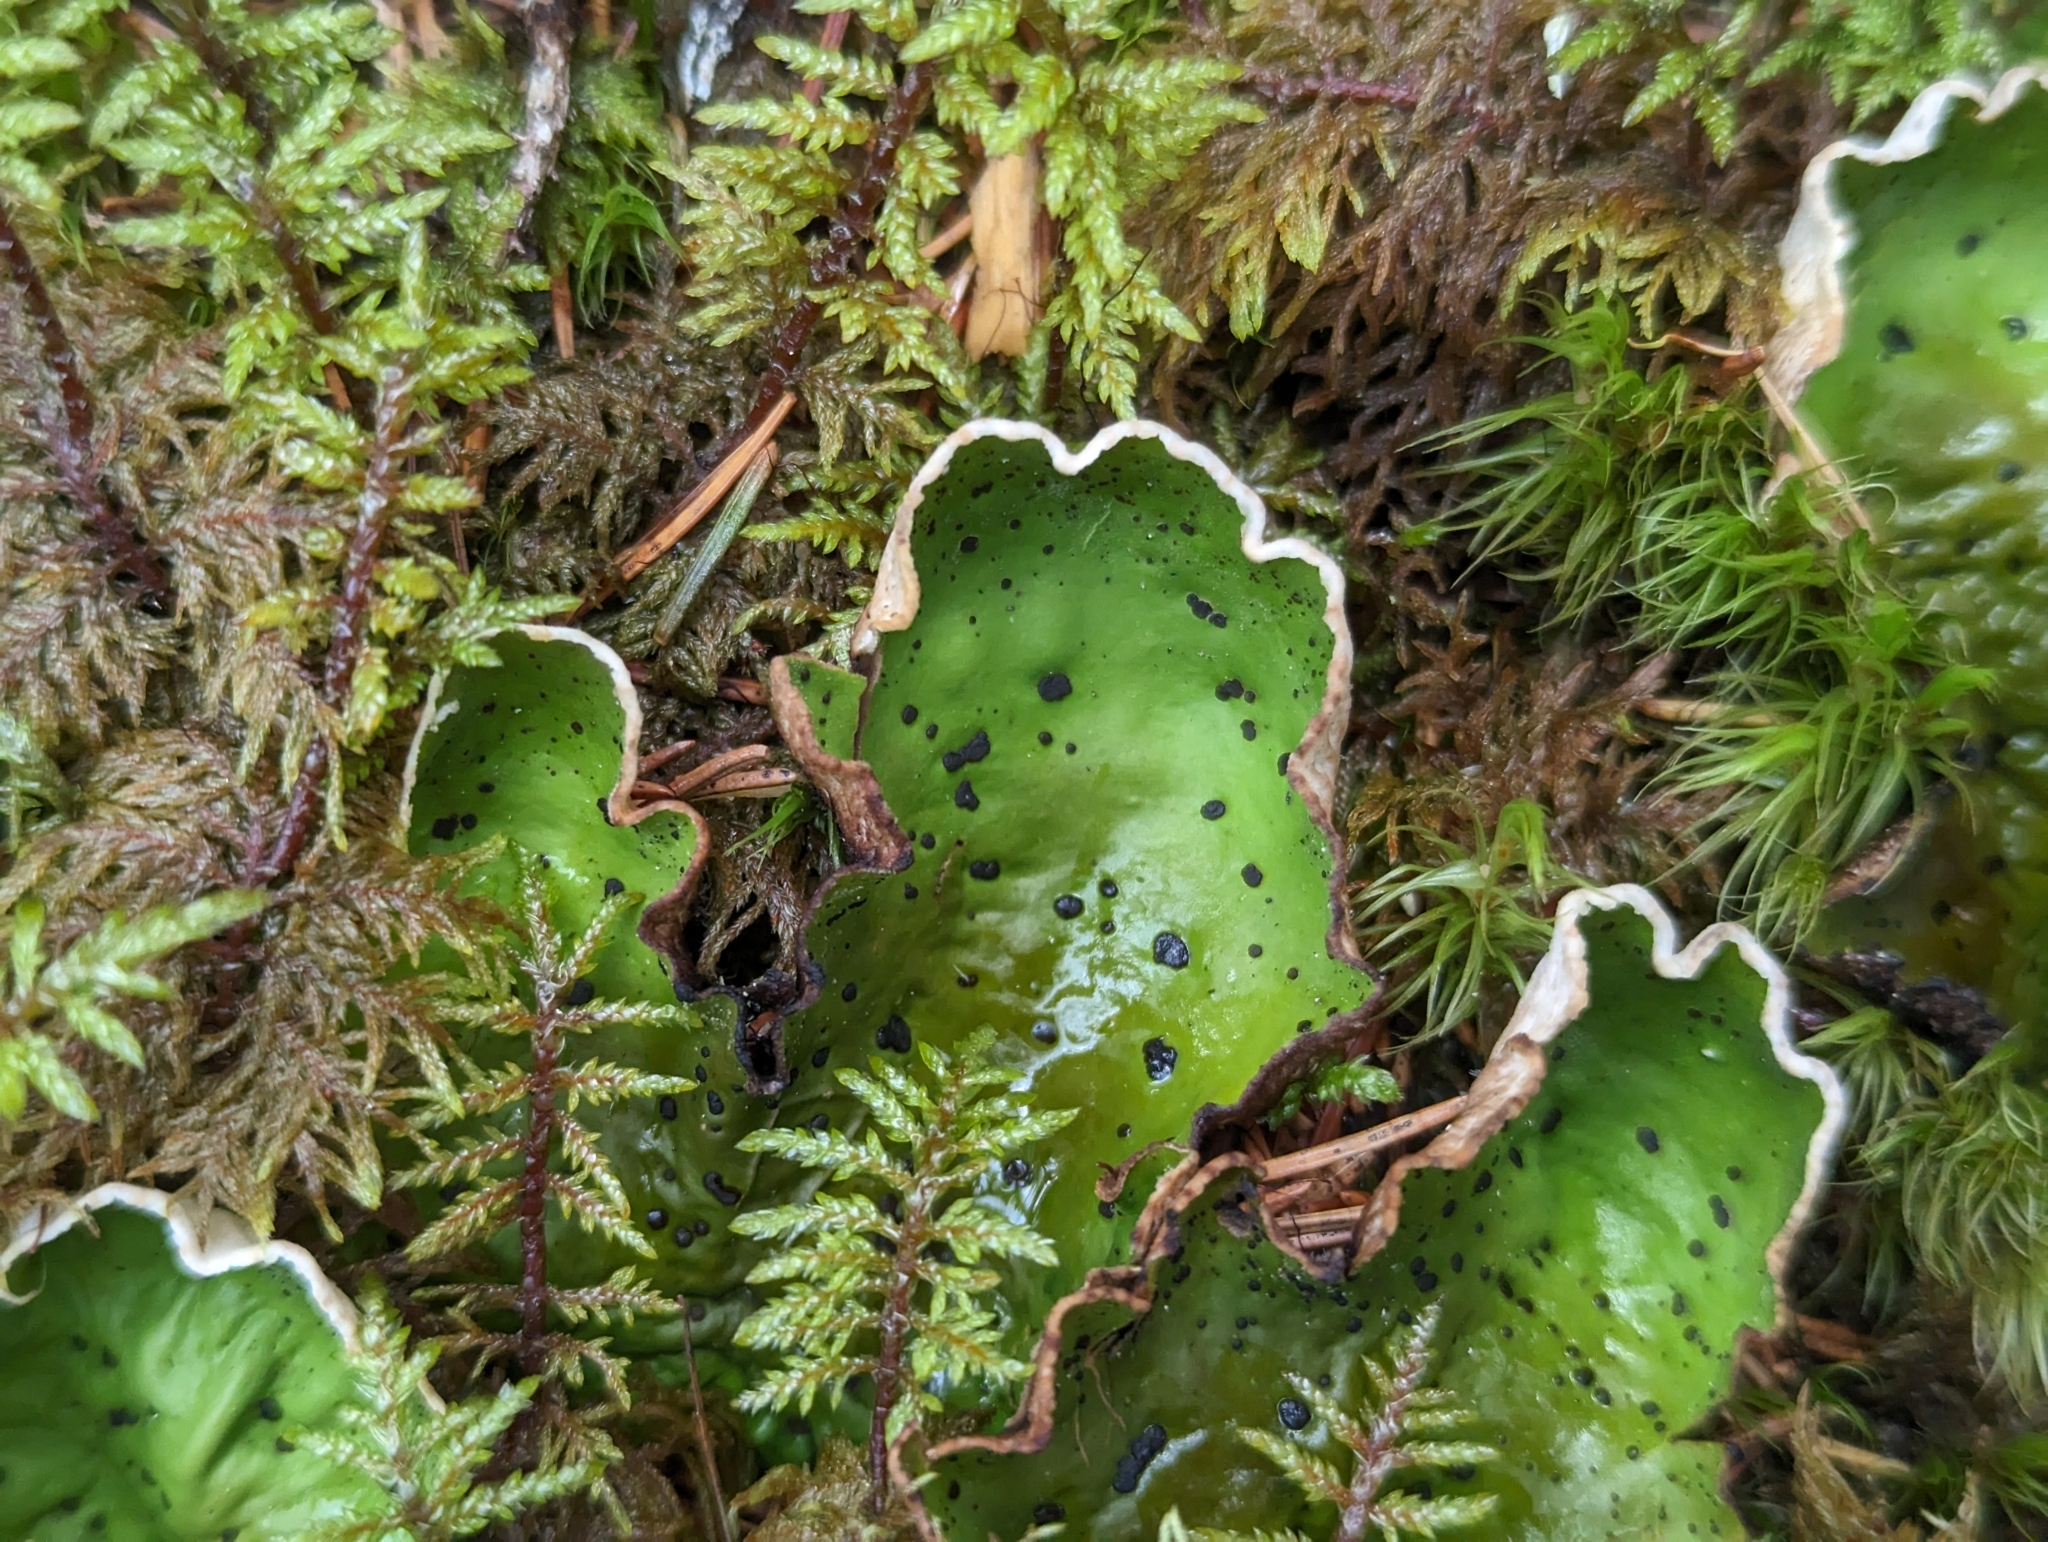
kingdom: Fungi
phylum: Ascomycota
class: Lecanoromycetes
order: Peltigerales
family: Peltigeraceae
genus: Peltigera
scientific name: Peltigera aphthosa
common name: Common freckle pelt lichen
